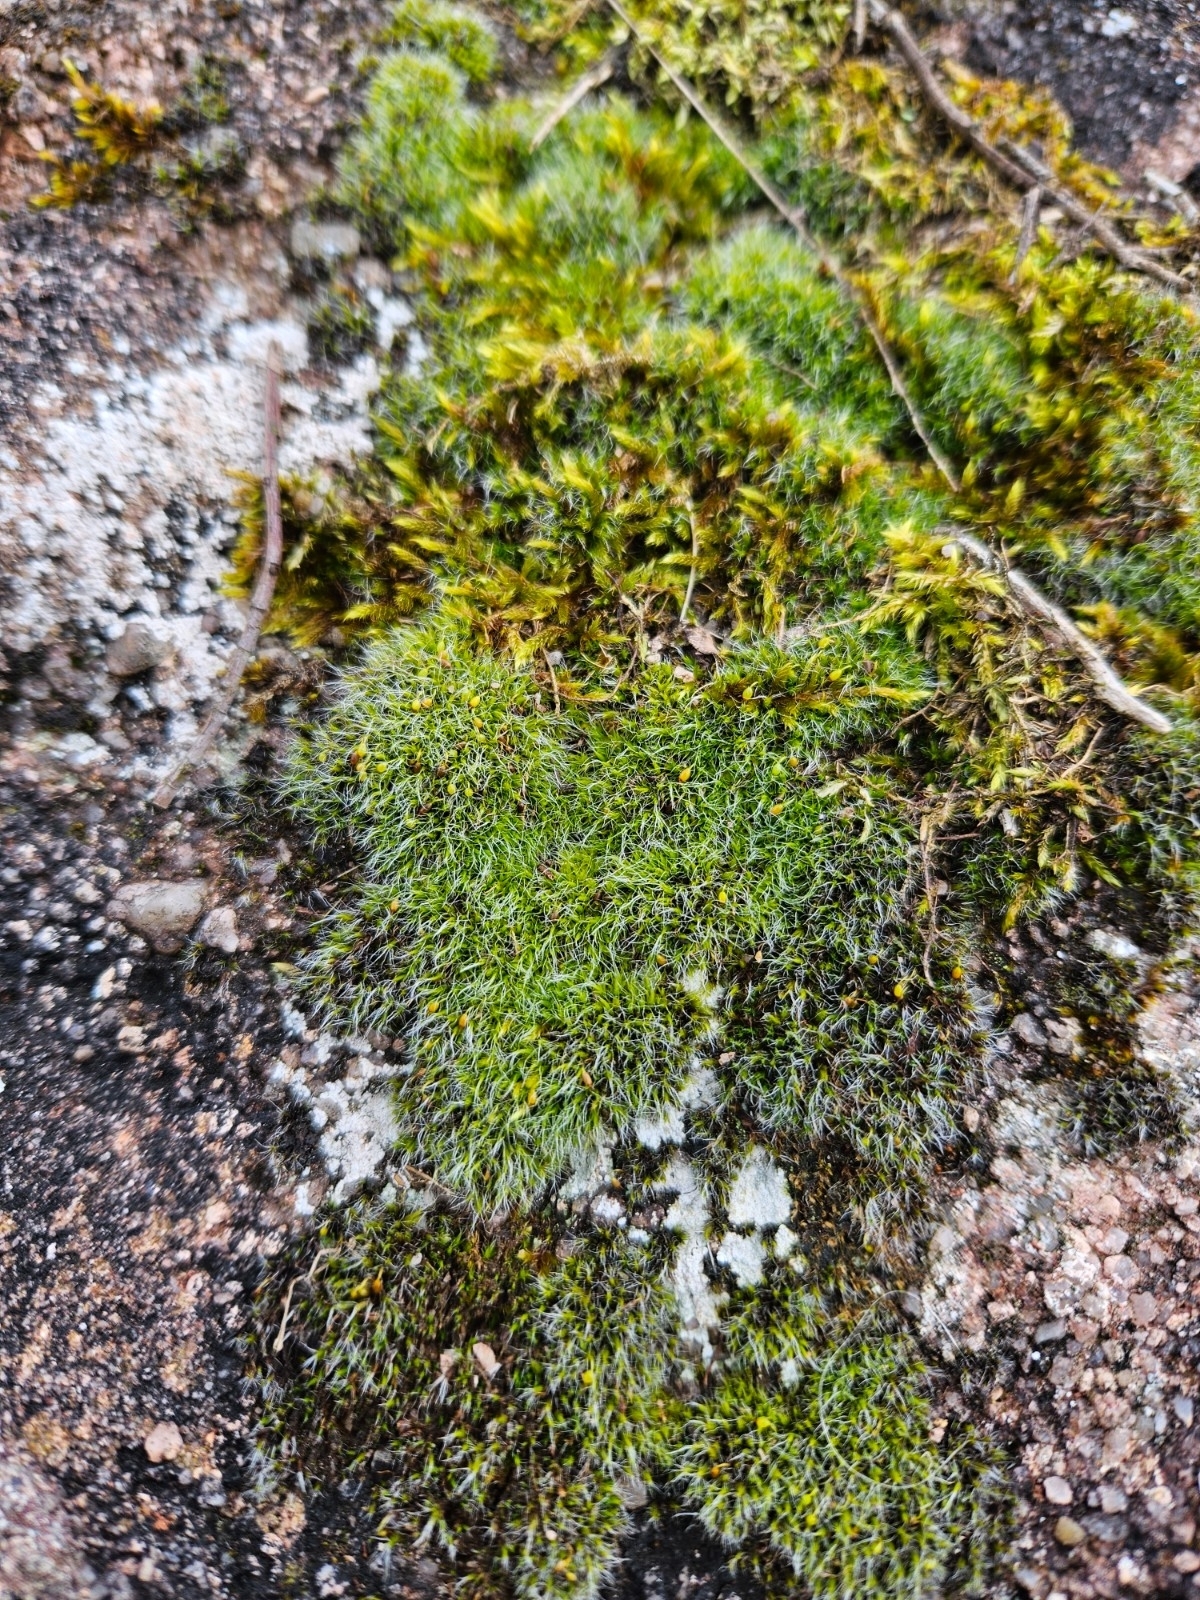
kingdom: Plantae
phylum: Bryophyta
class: Bryopsida
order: Grimmiales
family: Grimmiaceae
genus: Grimmia
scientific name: Grimmia pulvinata
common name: Grey-cushioned grimmia
